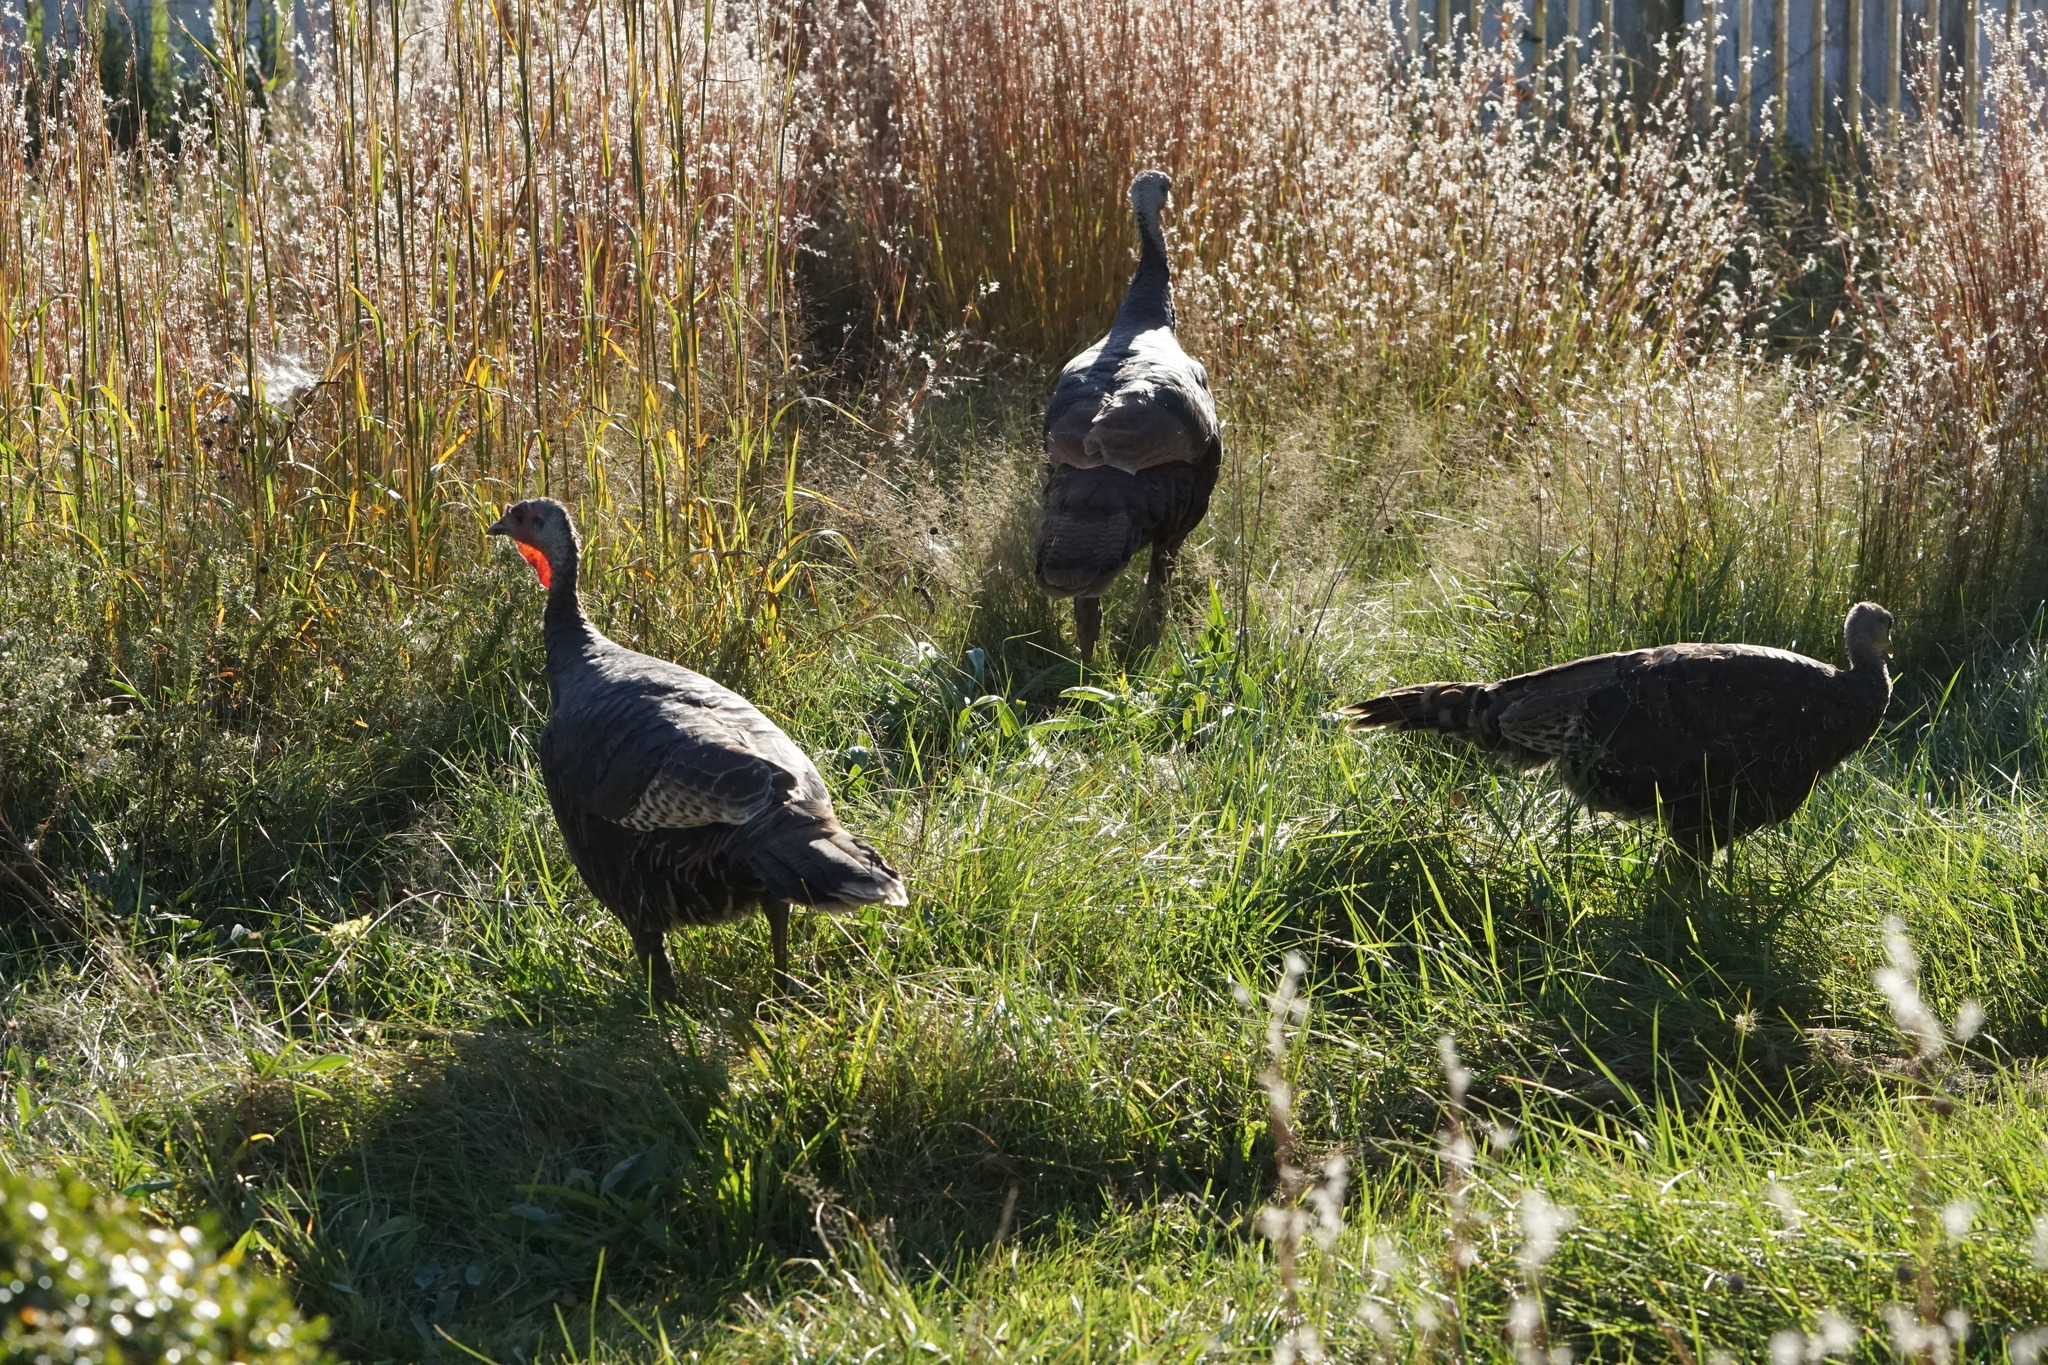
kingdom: Animalia
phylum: Chordata
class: Aves
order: Galliformes
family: Phasianidae
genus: Meleagris
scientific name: Meleagris gallopavo
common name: Wild turkey
